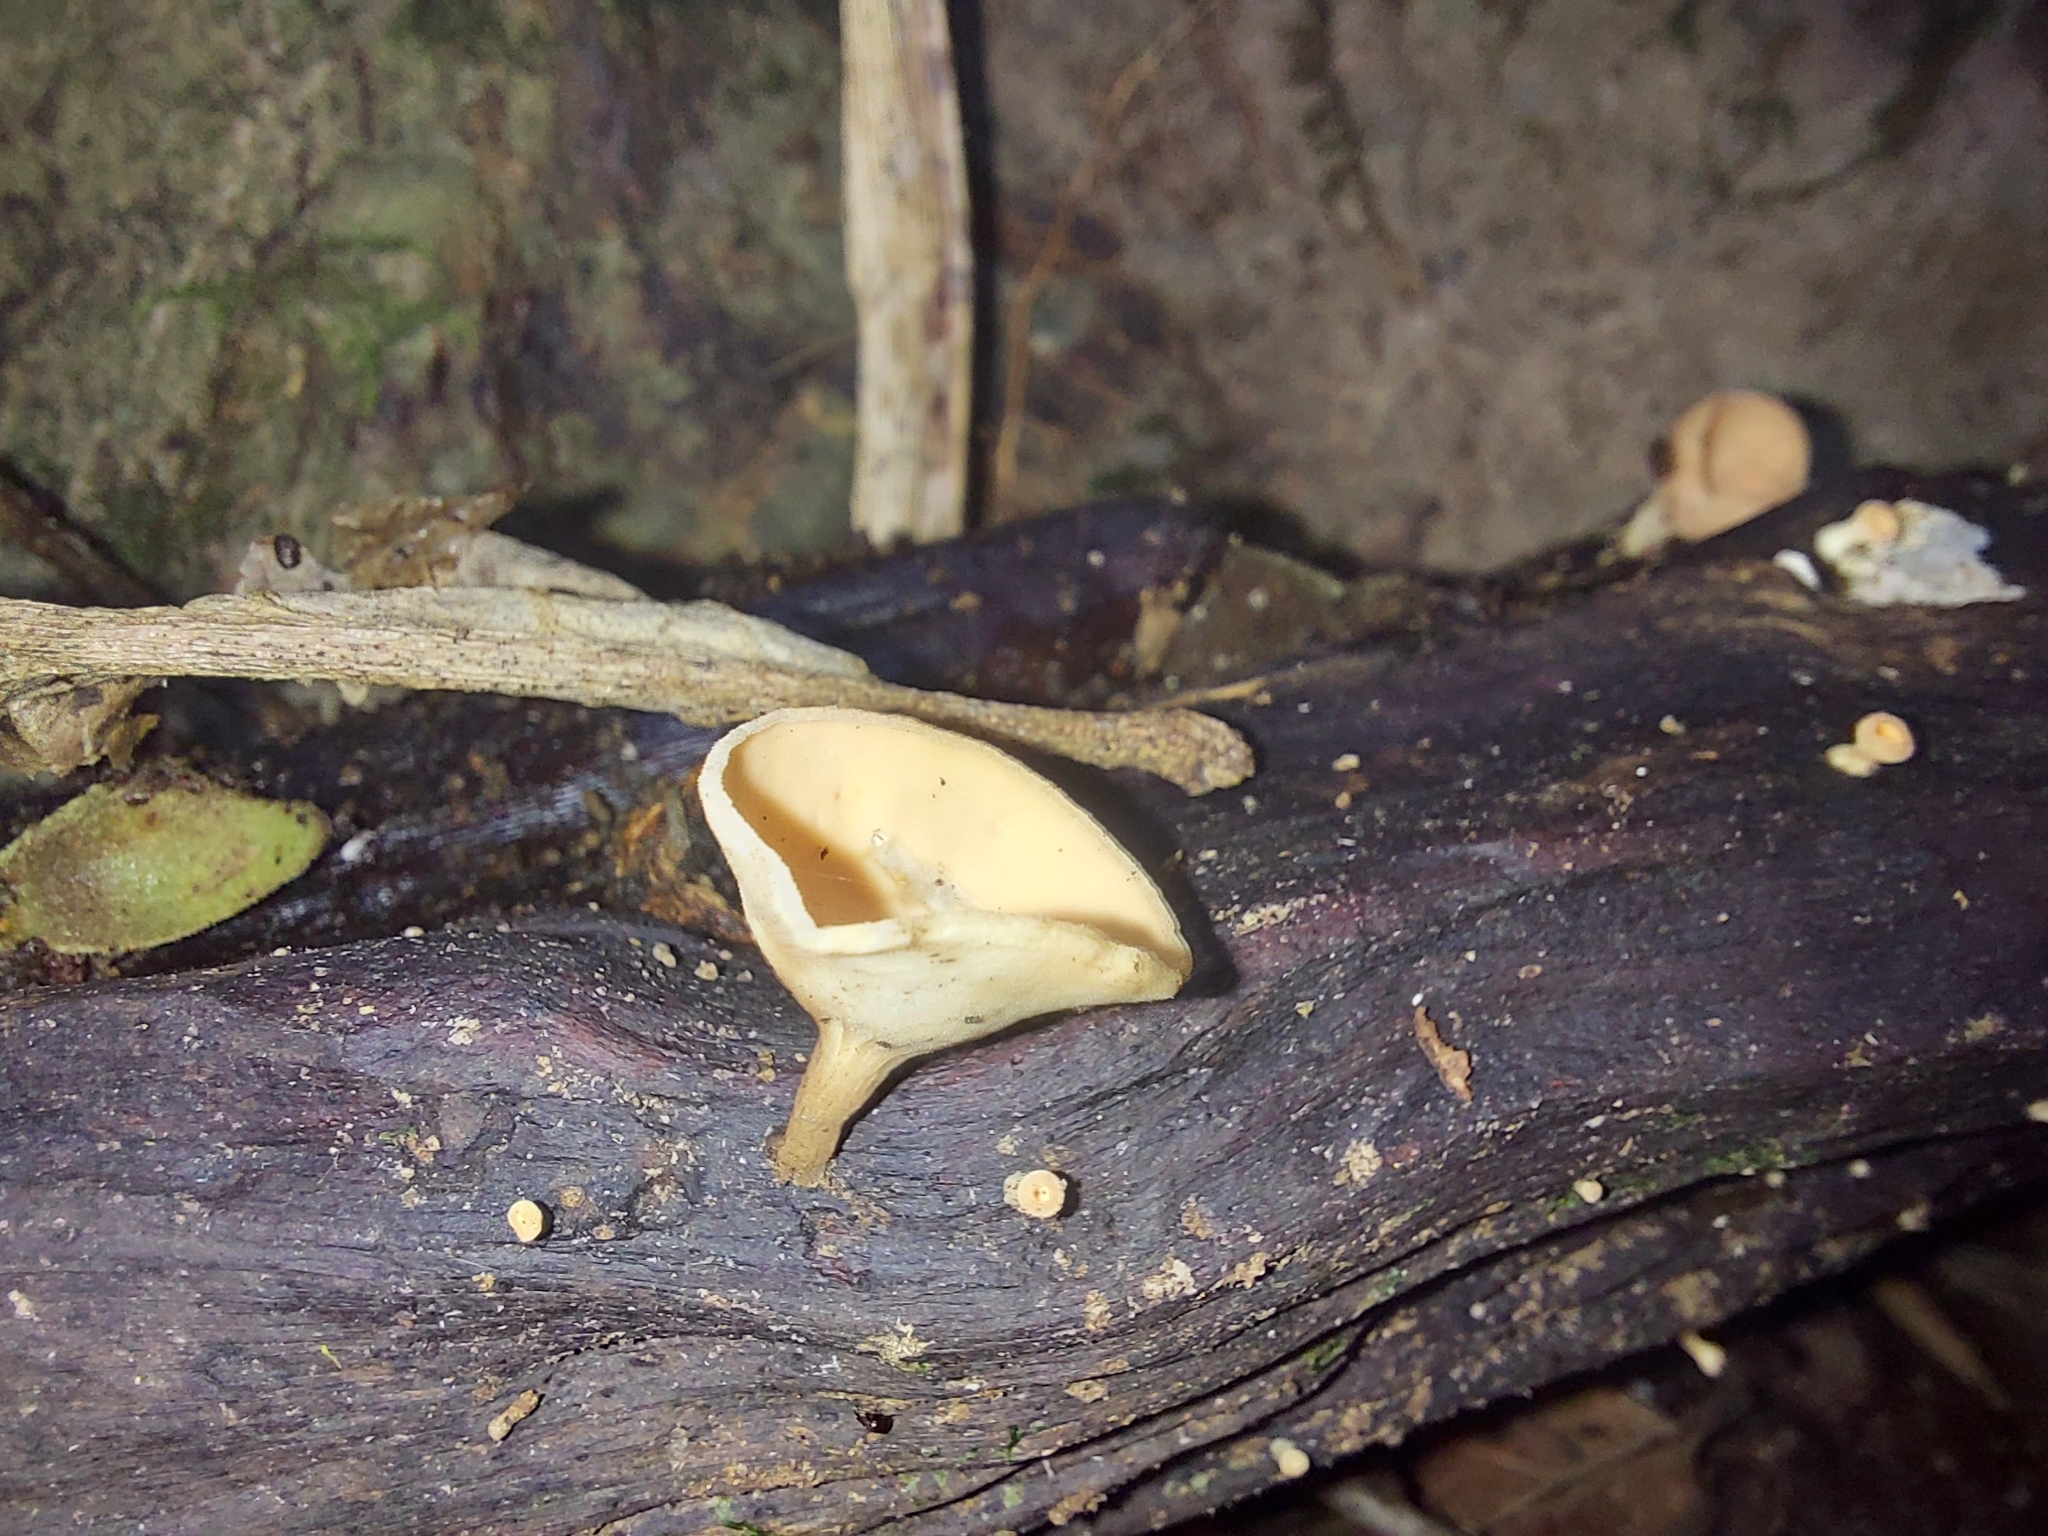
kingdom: Fungi
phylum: Ascomycota
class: Pezizomycetes
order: Pezizales
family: Sarcoscyphaceae
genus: Cookeina
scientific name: Cookeina colensoi
